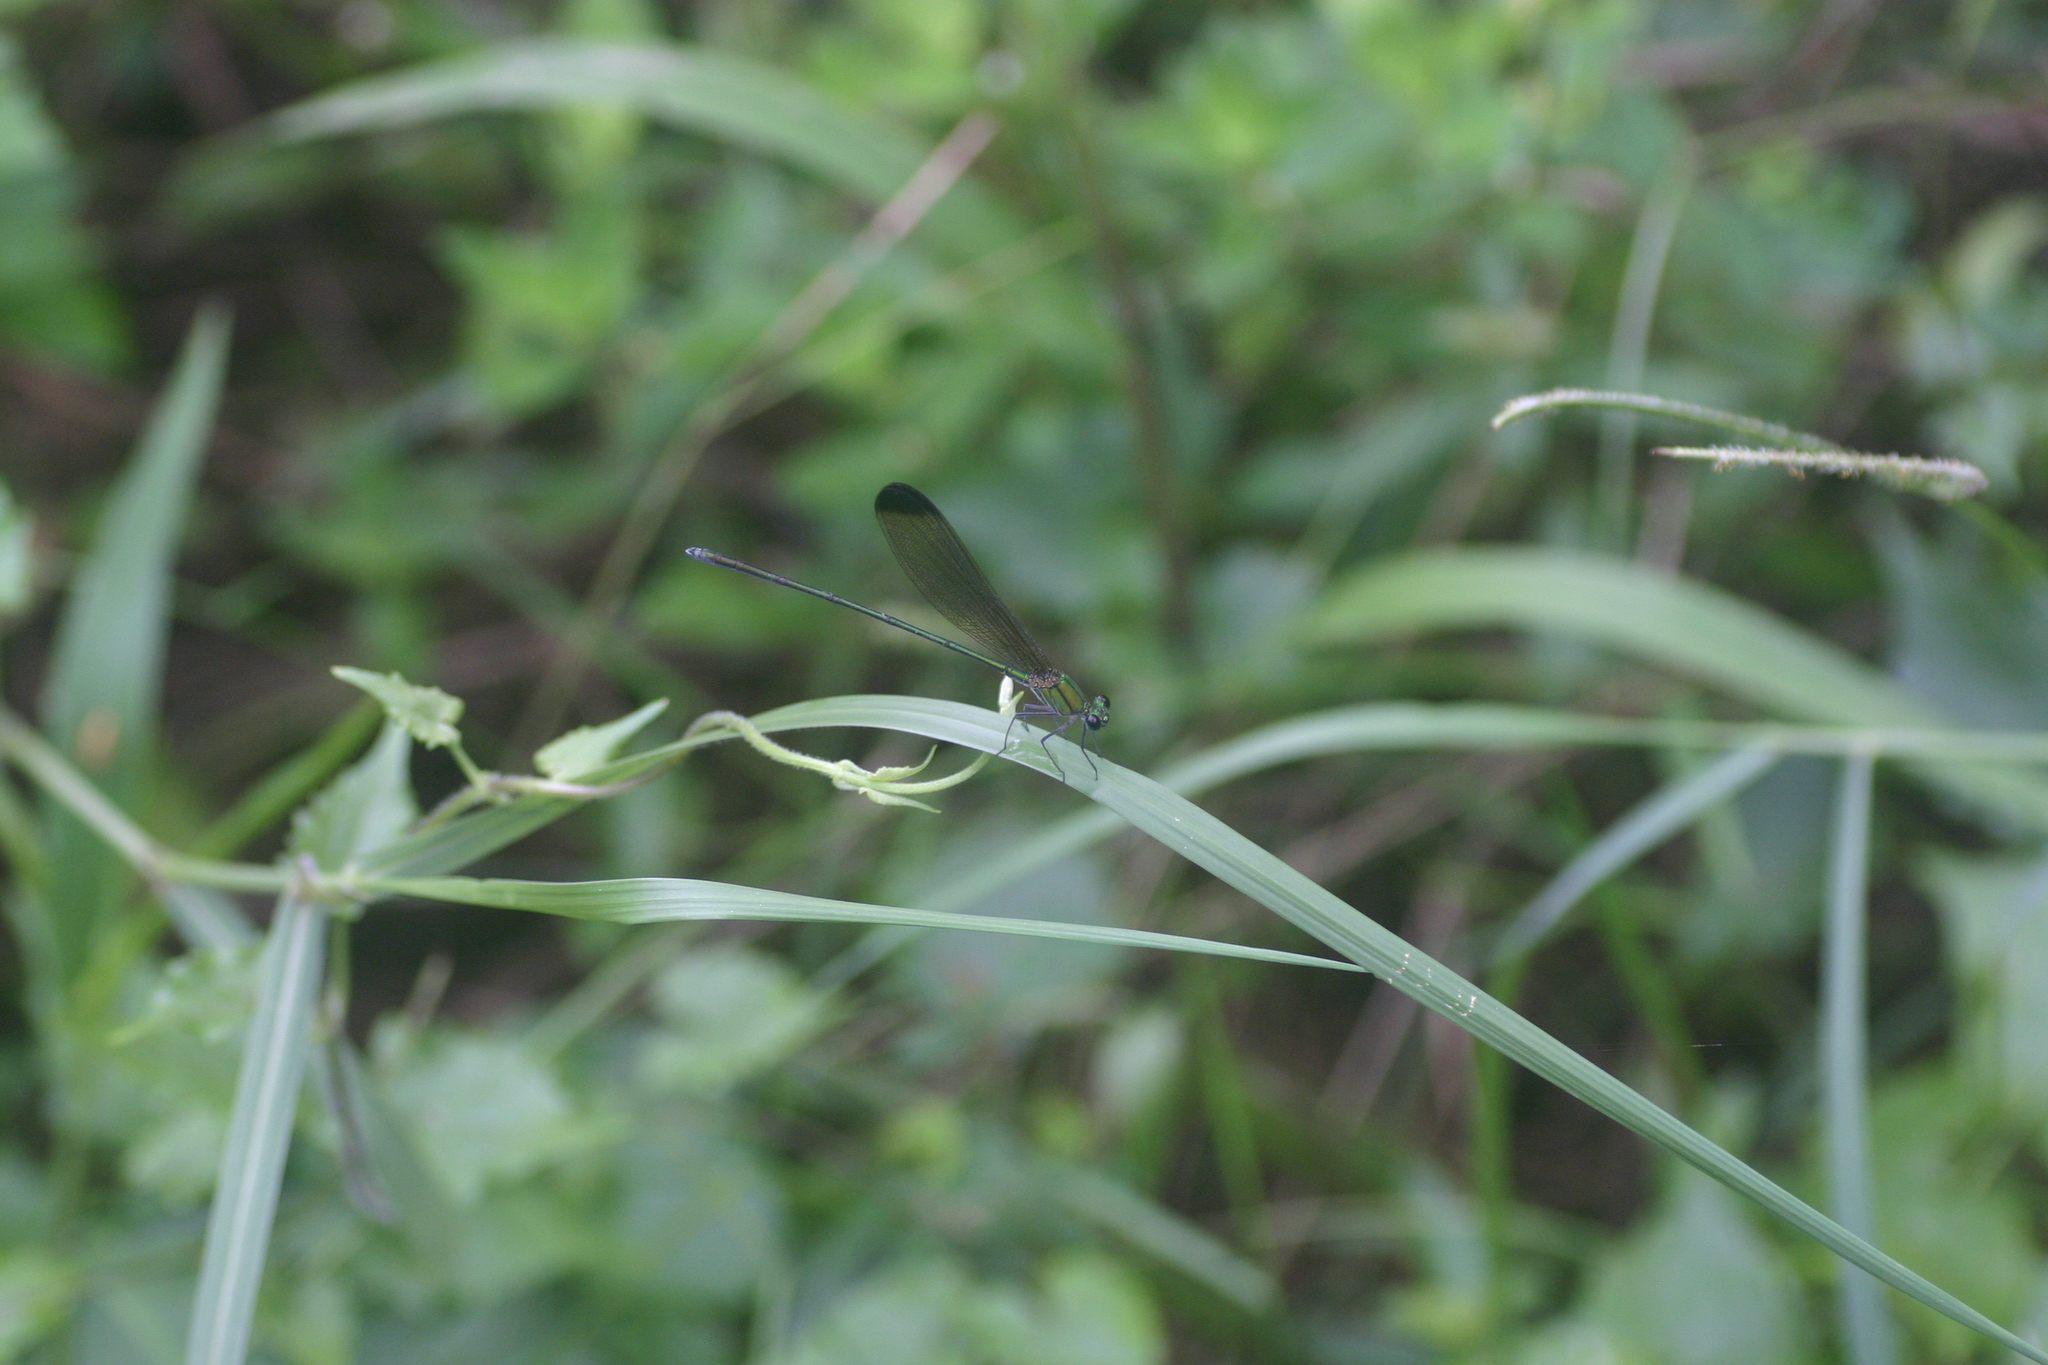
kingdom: Animalia
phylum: Arthropoda
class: Insecta
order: Odonata
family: Calopterygidae
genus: Vestalis
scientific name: Vestalis apicalis
